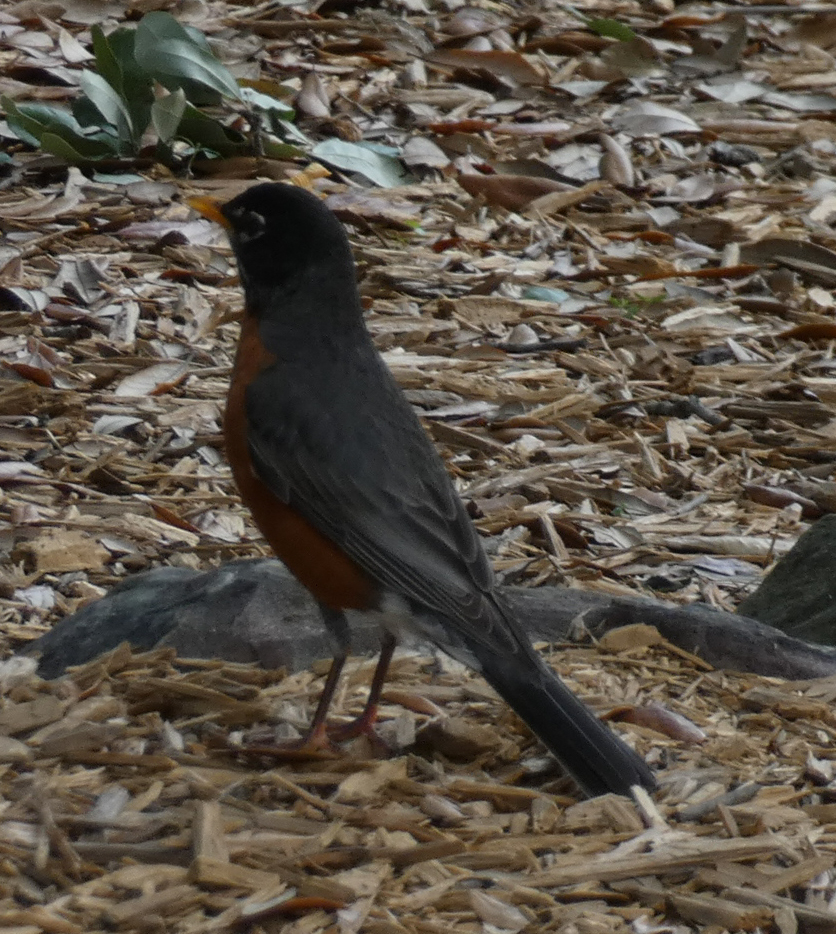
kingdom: Animalia
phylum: Chordata
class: Aves
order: Passeriformes
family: Turdidae
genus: Turdus
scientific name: Turdus migratorius
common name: American robin
